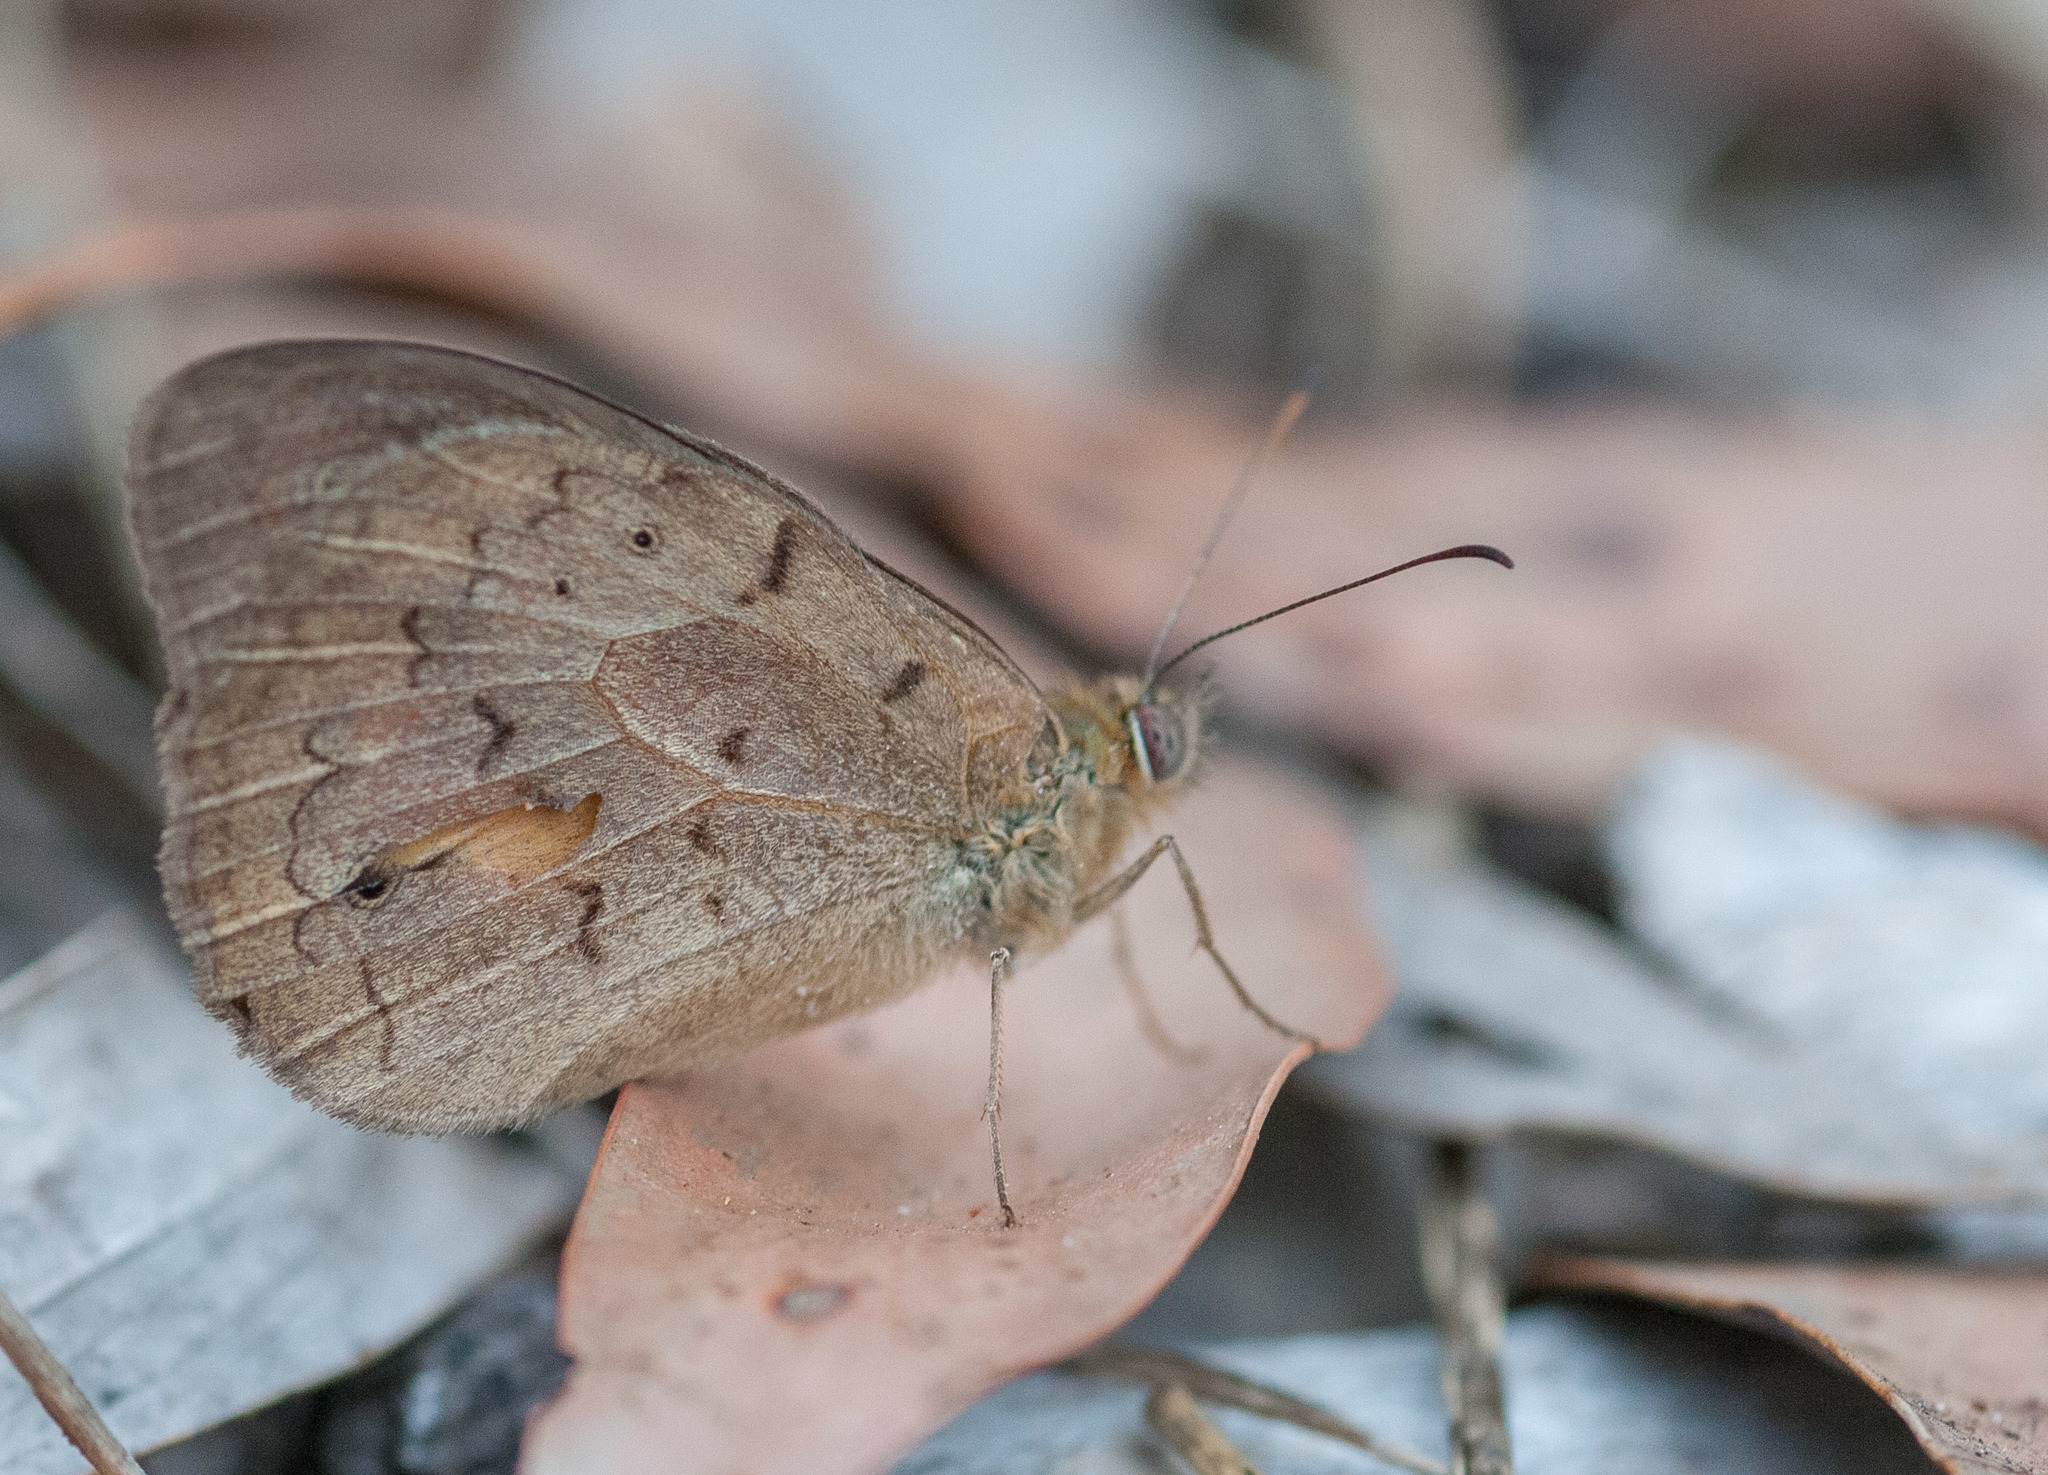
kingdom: Animalia
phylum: Arthropoda
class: Insecta
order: Lepidoptera
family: Nymphalidae
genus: Heteronympha
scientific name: Heteronympha merope
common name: Common brown
